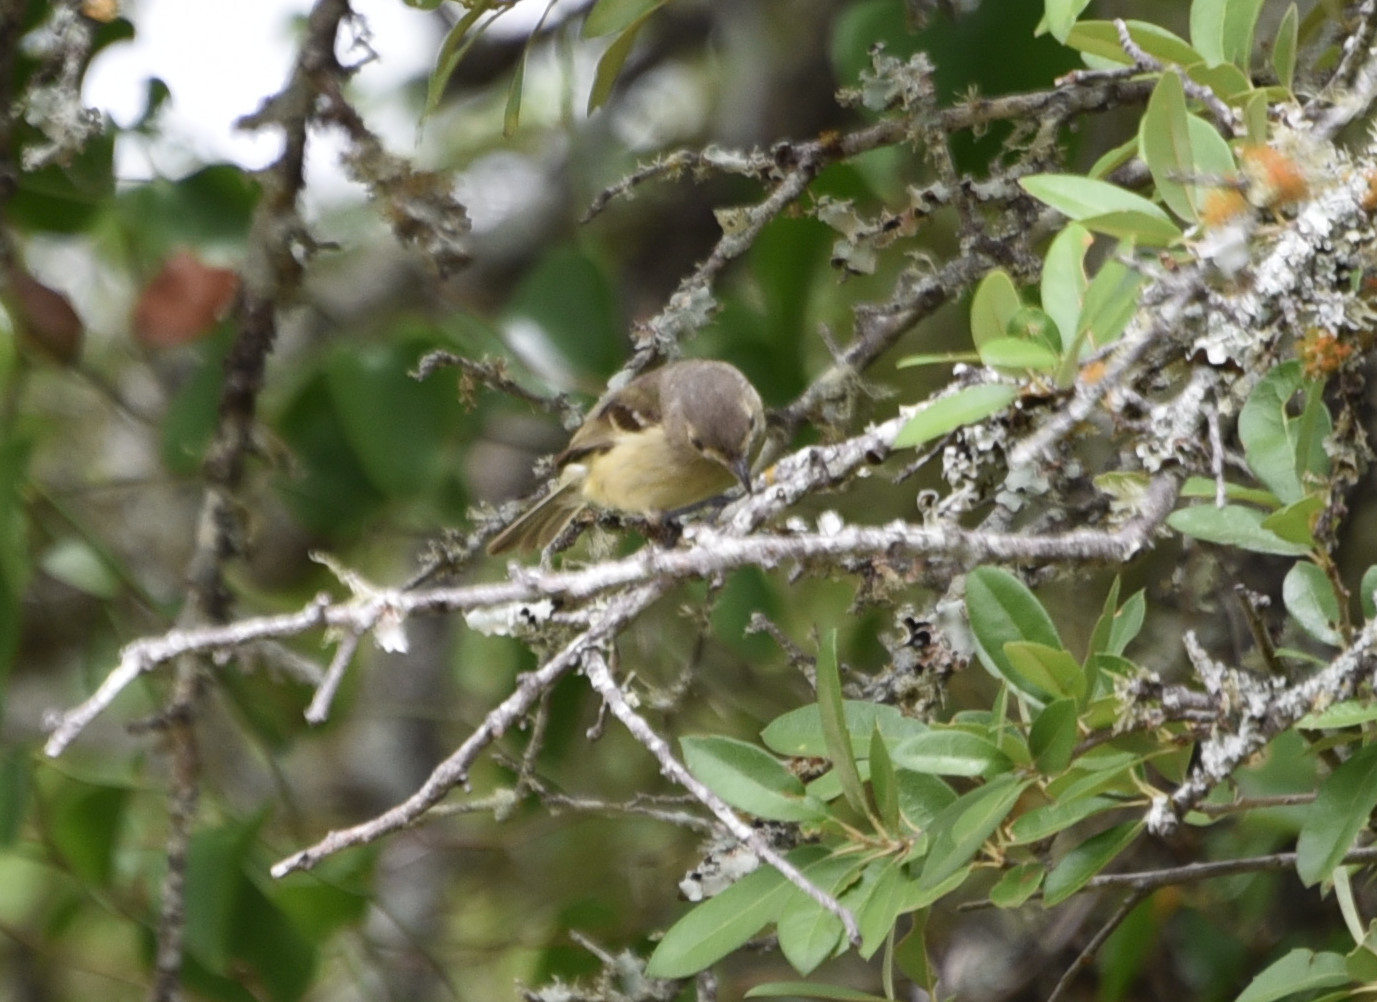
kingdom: Animalia
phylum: Chordata
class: Aves
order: Passeriformes
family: Vireonidae
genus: Vireo
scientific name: Vireo huttoni
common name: Hutton's vireo
